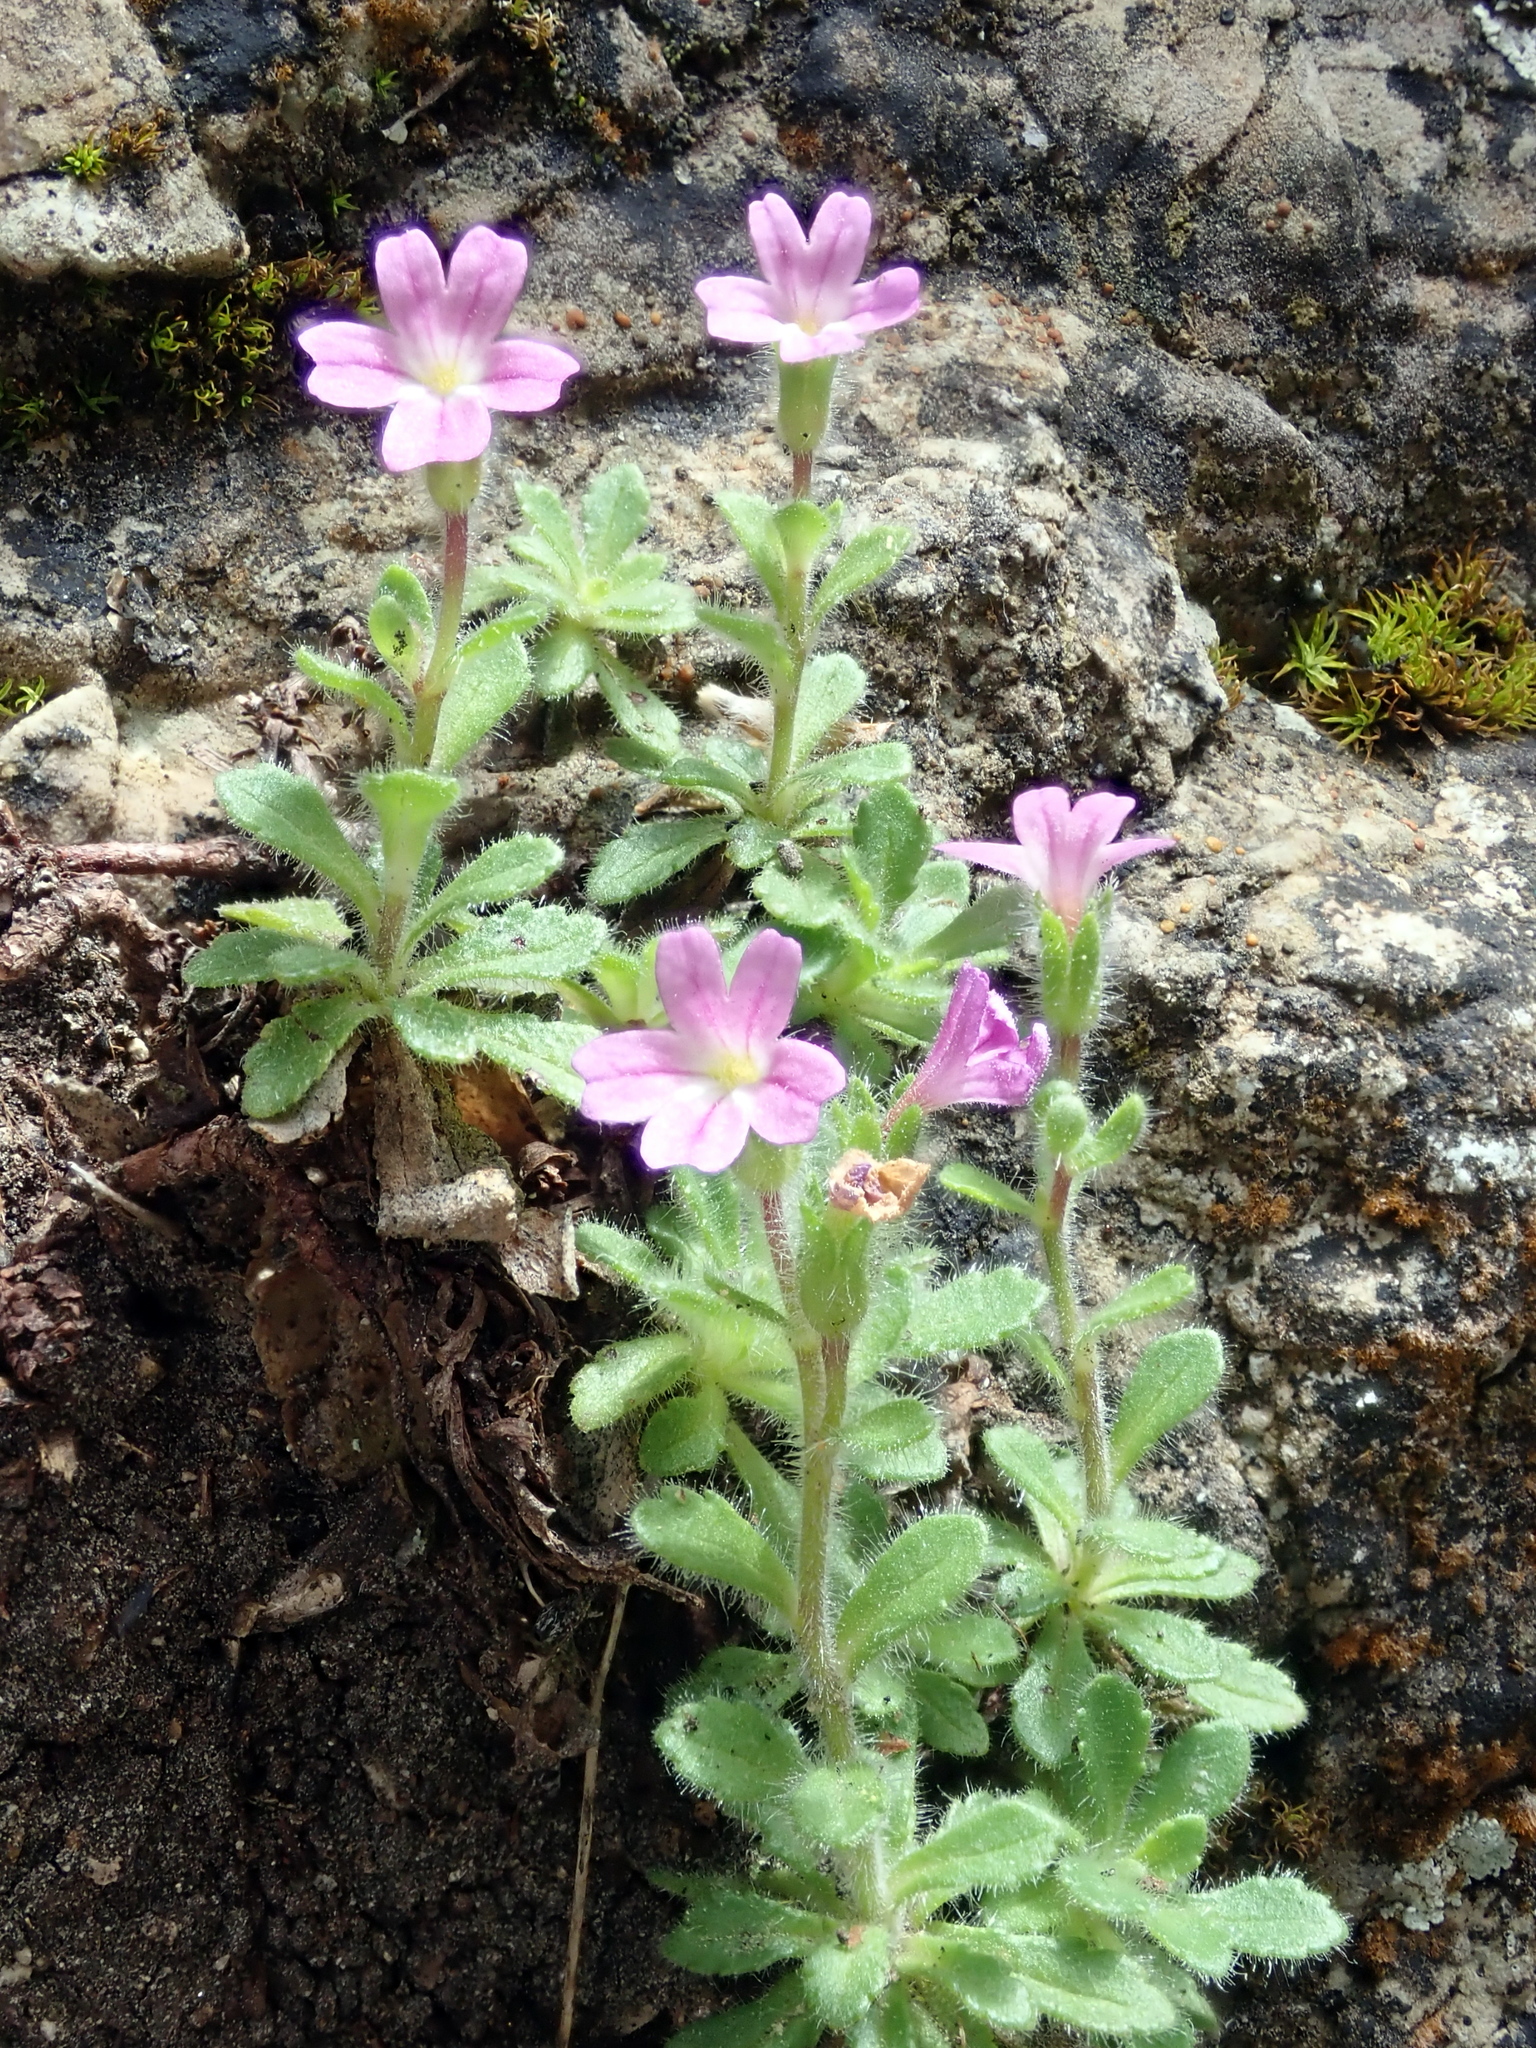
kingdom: Plantae
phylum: Tracheophyta
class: Magnoliopsida
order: Lamiales
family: Plantaginaceae
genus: Erinus
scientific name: Erinus alpinus
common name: Fairy foxglove
